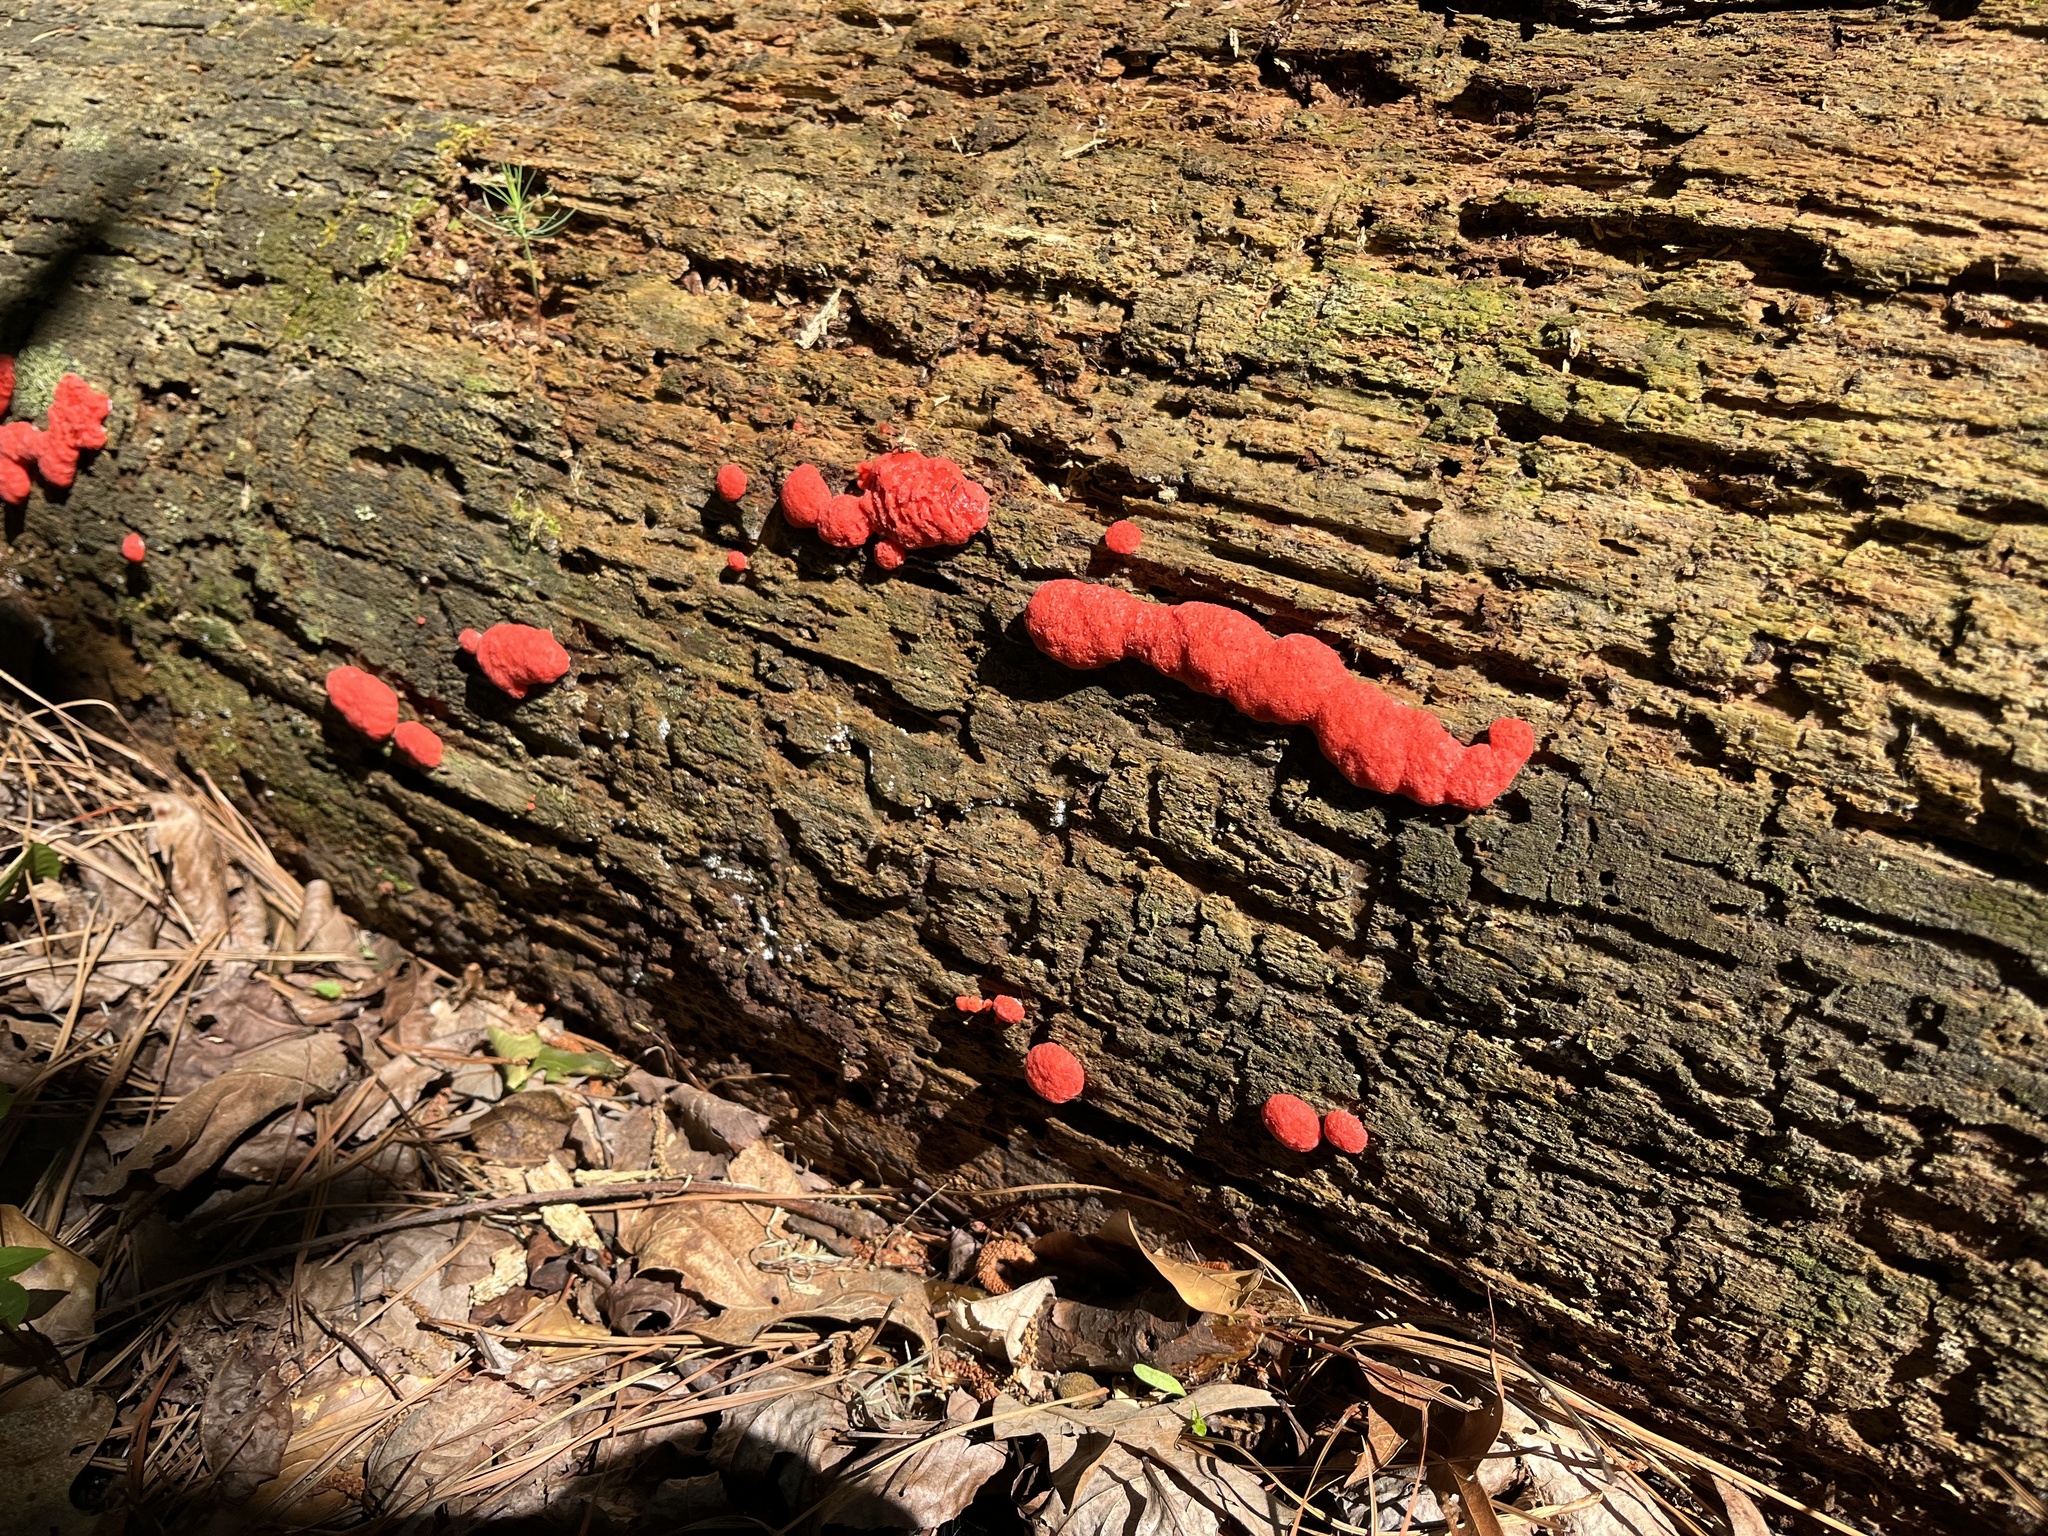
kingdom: Protozoa
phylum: Mycetozoa
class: Myxomycetes
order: Cribrariales
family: Tubiferaceae
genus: Tubifera
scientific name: Tubifera ferruginosa
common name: Red raspberry slime mold
